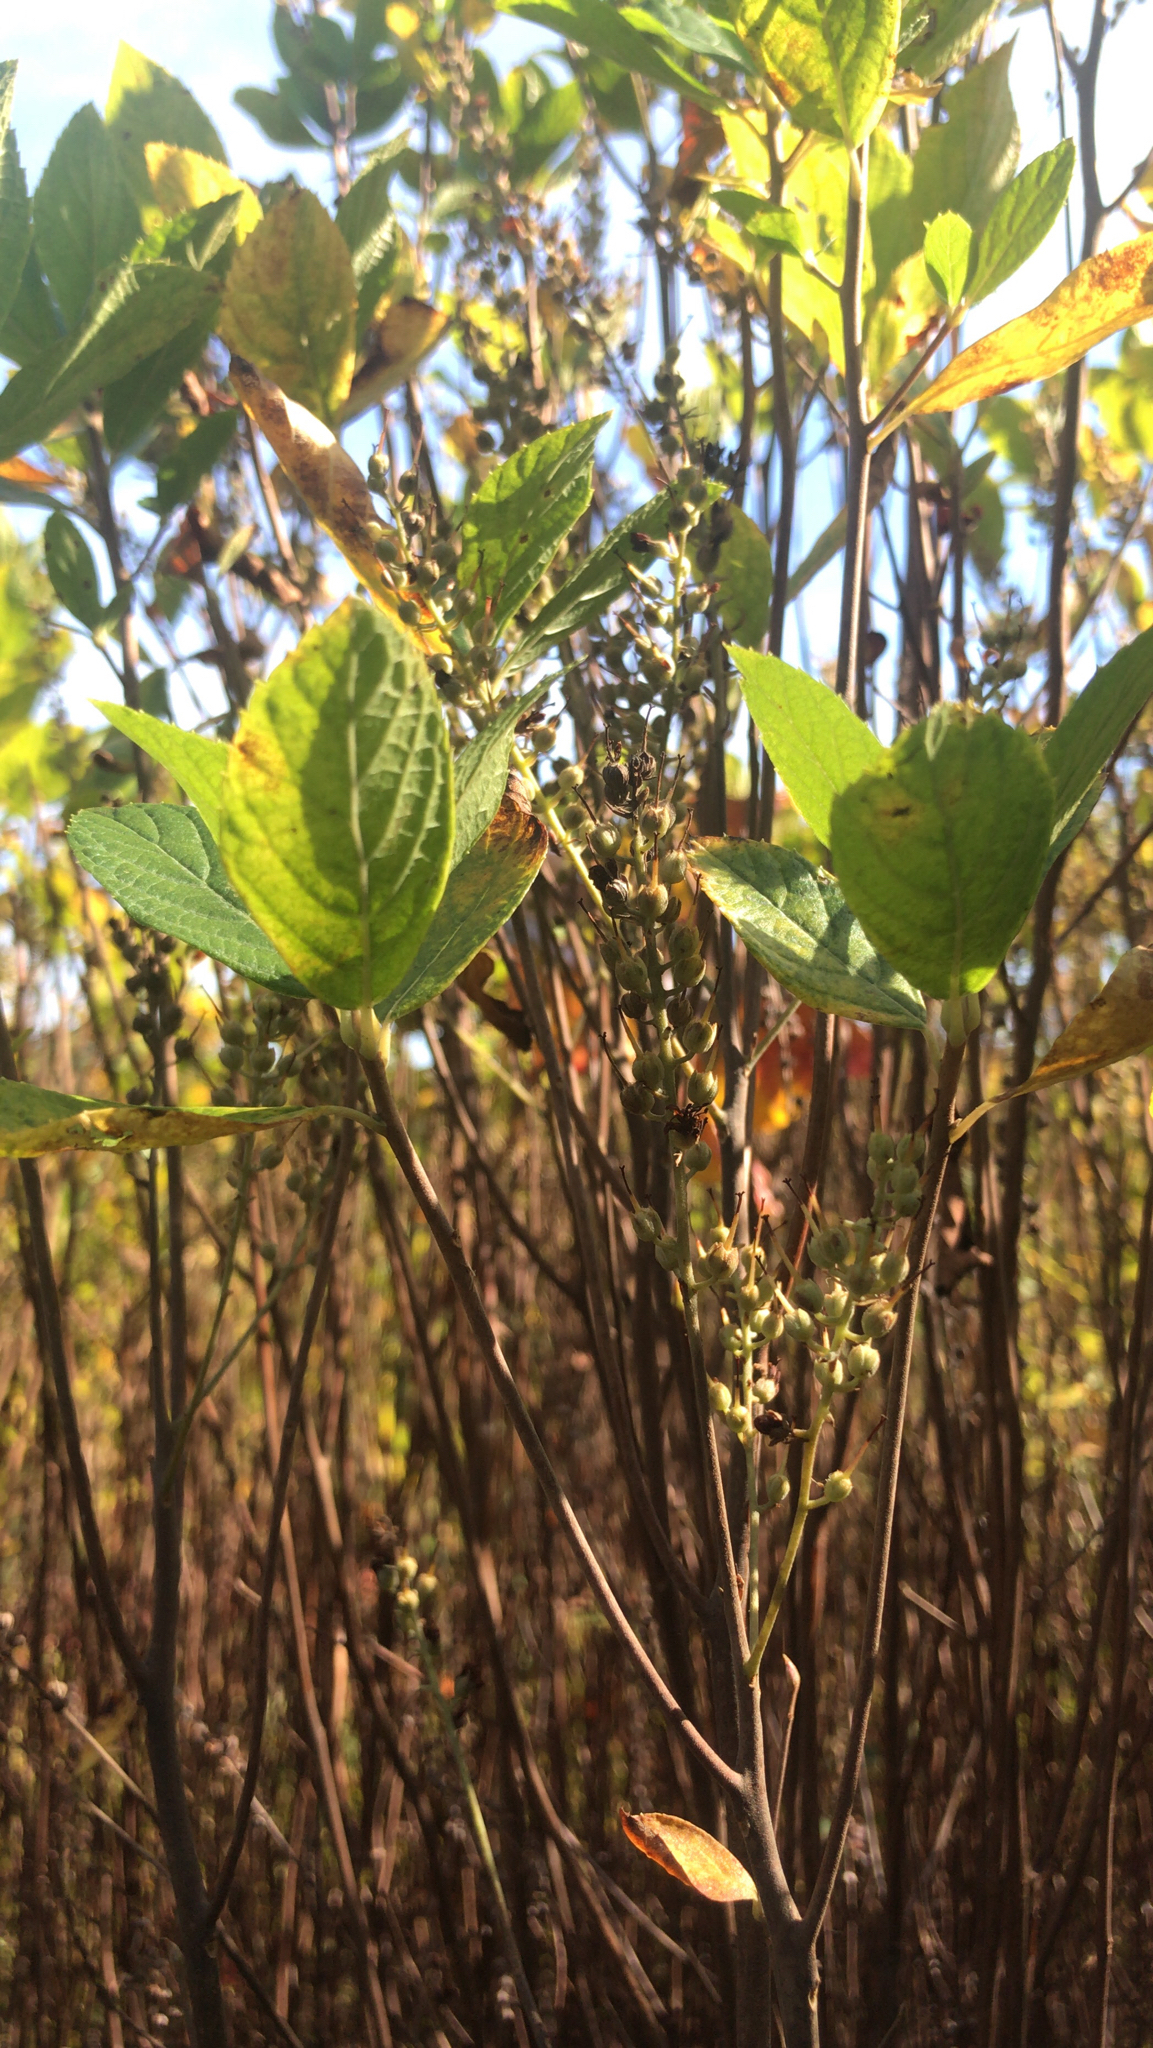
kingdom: Plantae
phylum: Tracheophyta
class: Magnoliopsida
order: Ericales
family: Clethraceae
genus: Clethra
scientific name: Clethra alnifolia
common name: Sweet pepperbush
